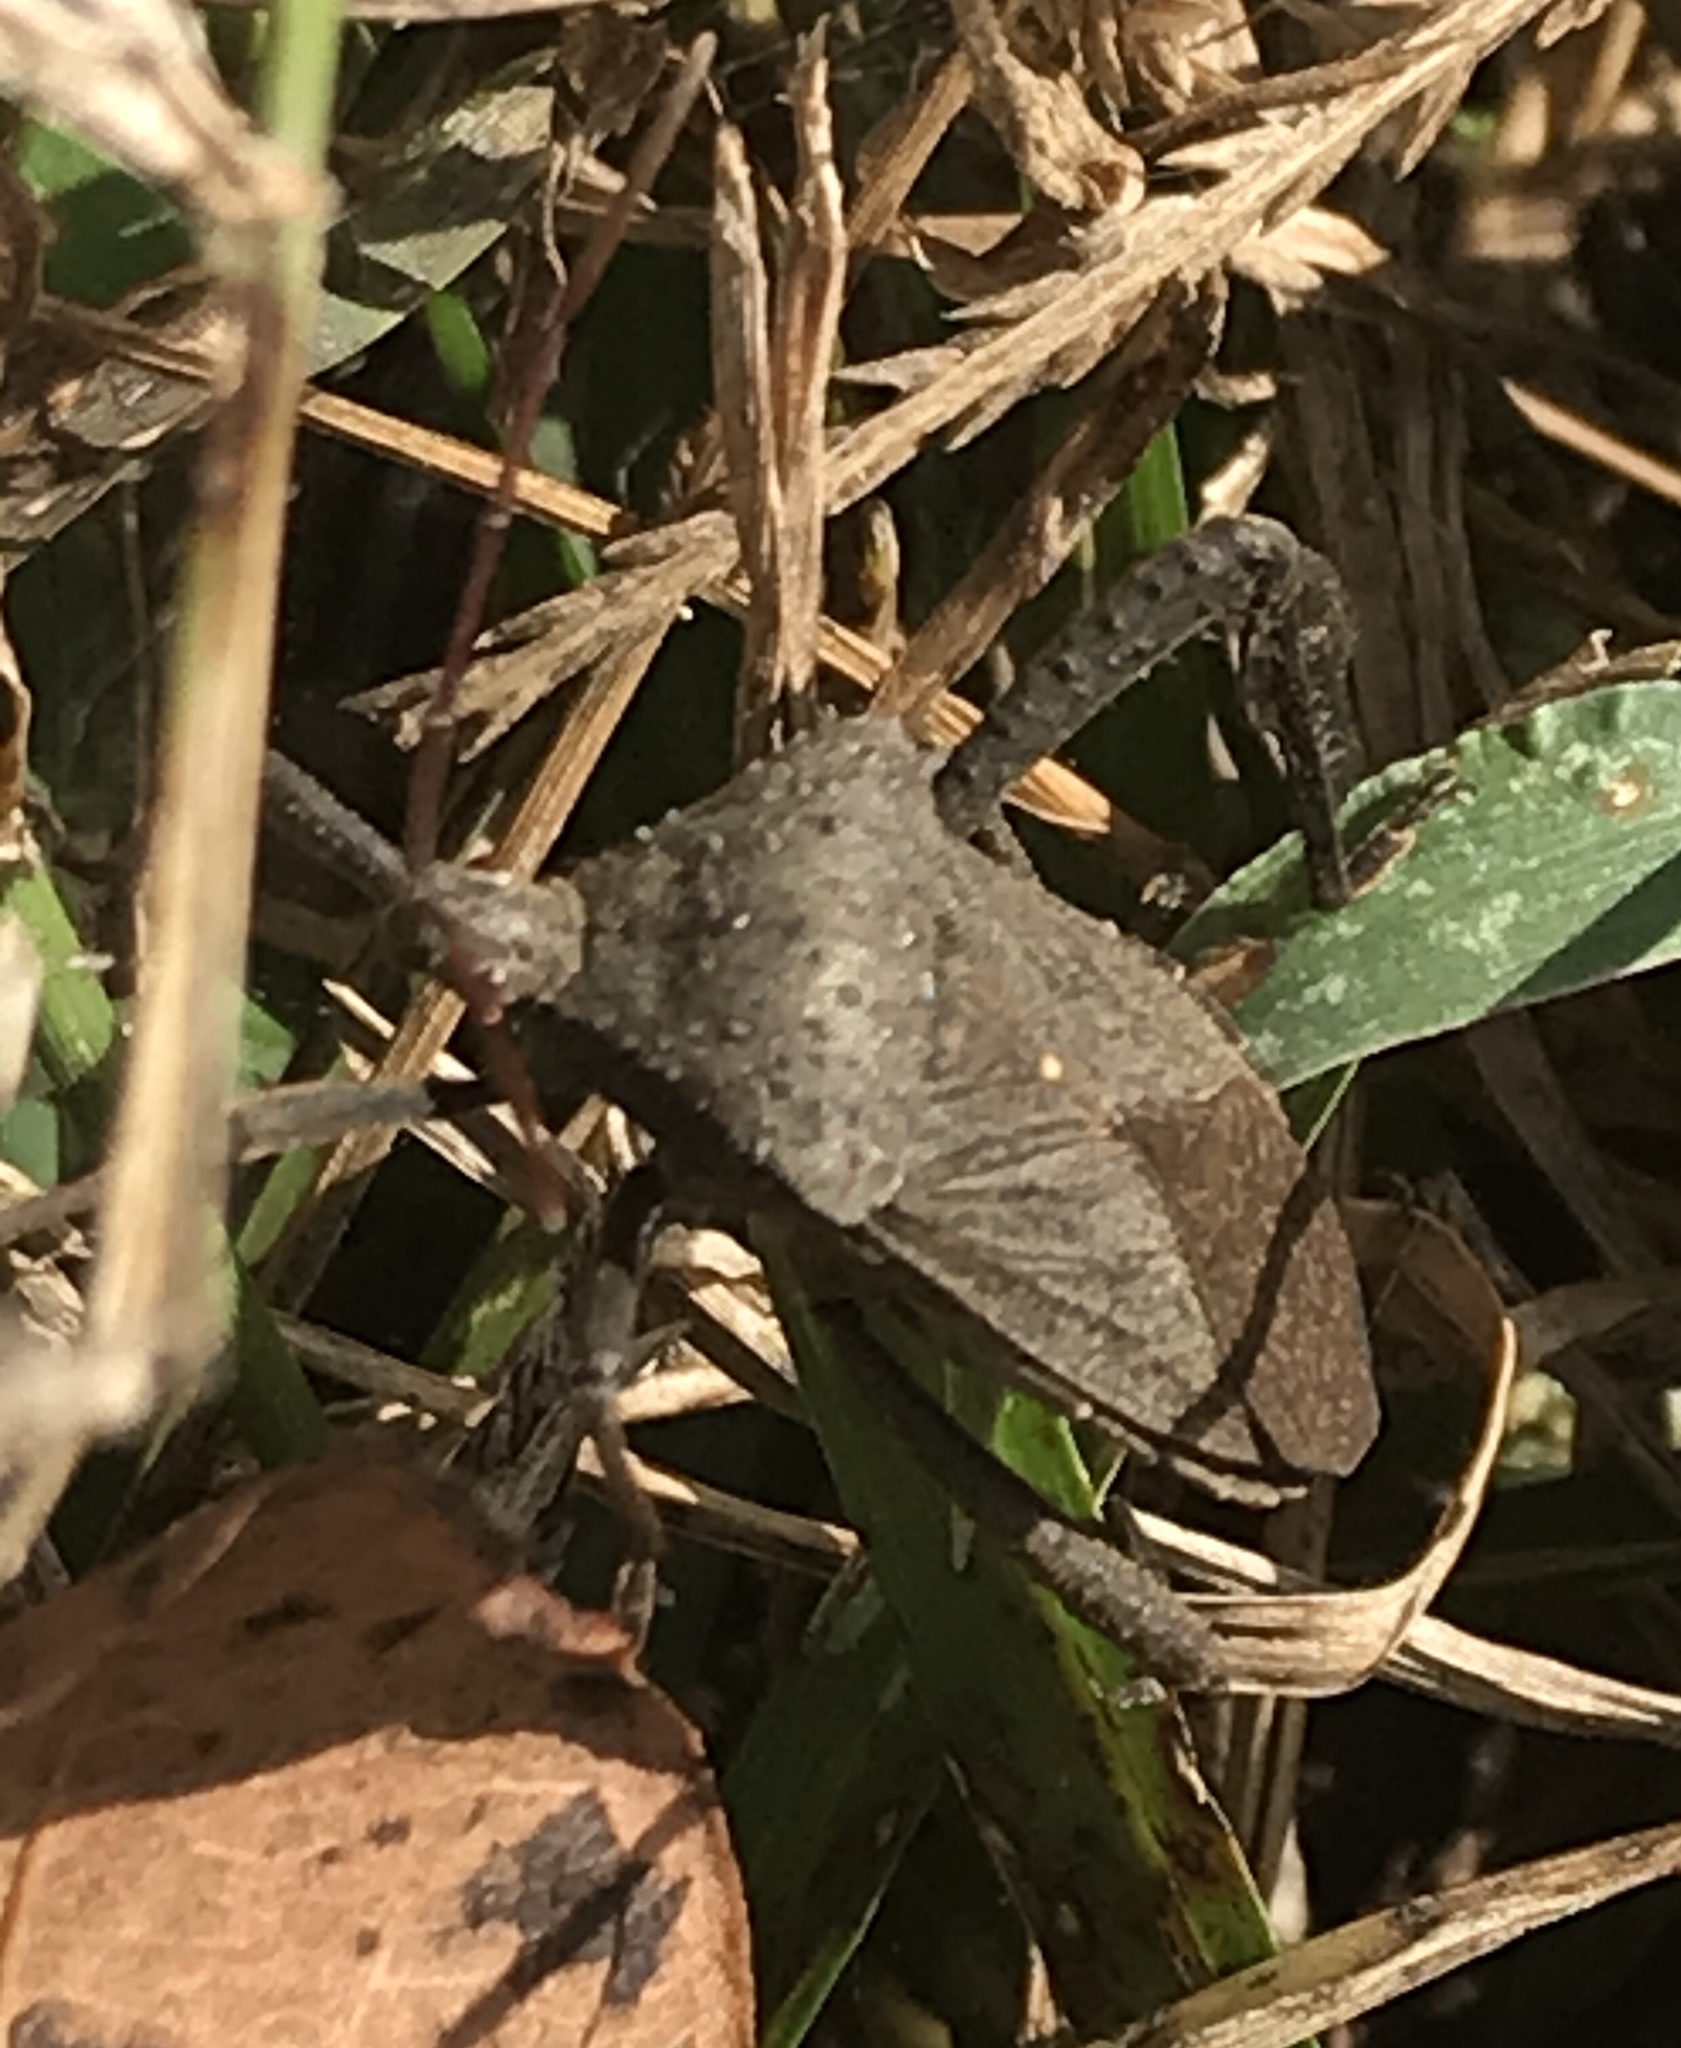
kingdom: Animalia
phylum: Arthropoda
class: Insecta
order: Hemiptera
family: Coreidae
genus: Acanthocephala
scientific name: Acanthocephala femorata
